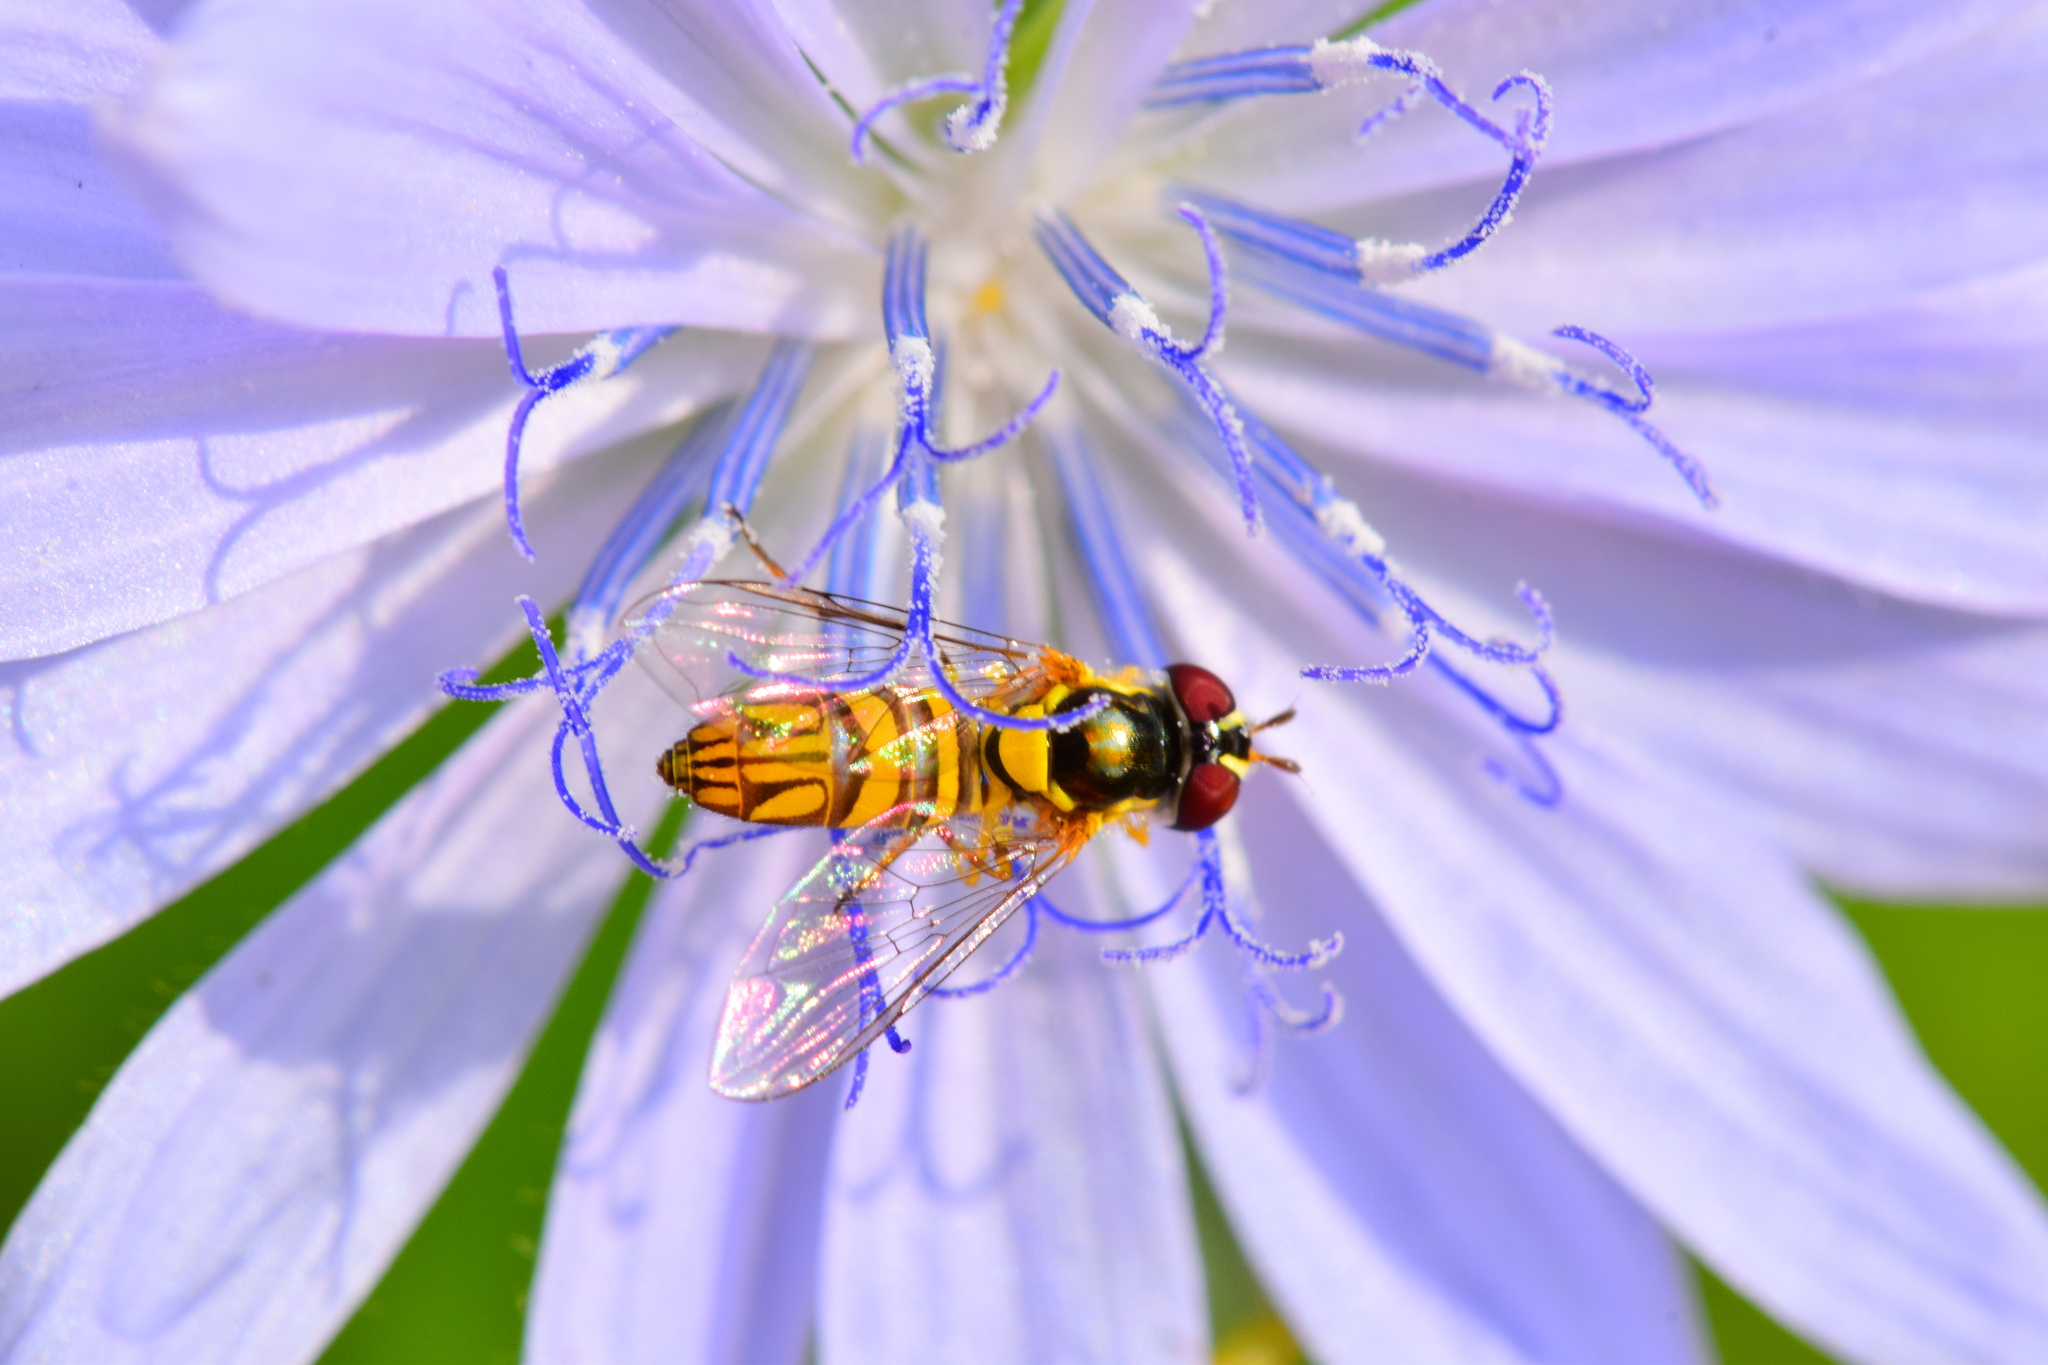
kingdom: Animalia
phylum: Arthropoda
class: Insecta
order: Diptera
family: Syrphidae
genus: Allograpta
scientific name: Allograpta obliqua
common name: Common oblique syrphid
